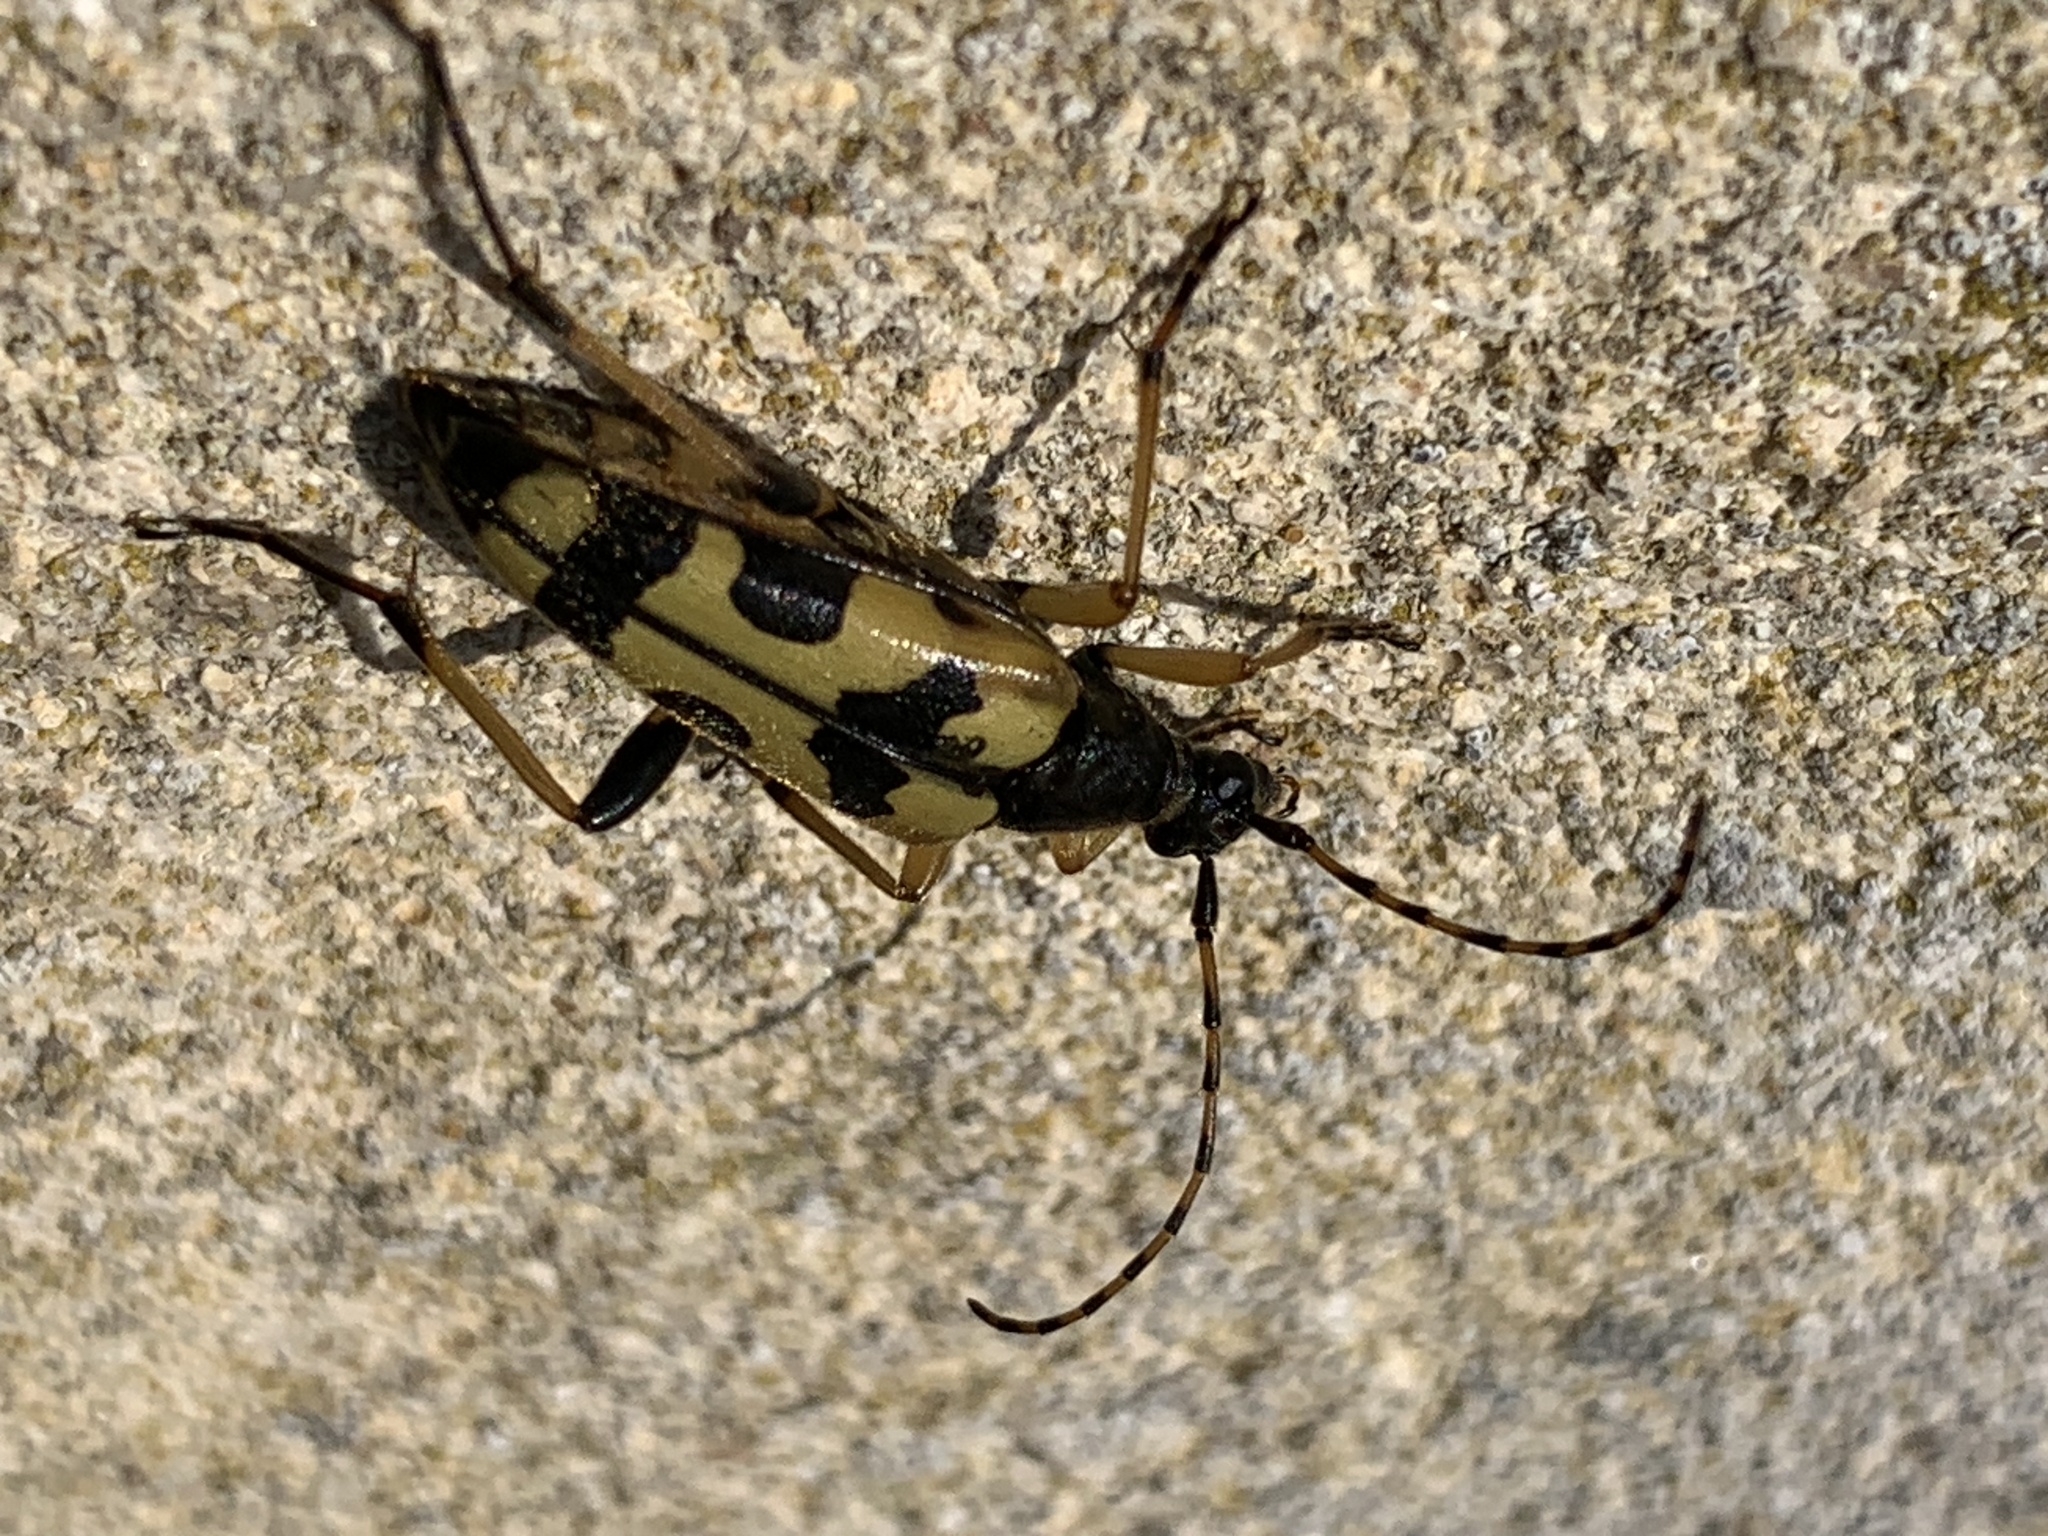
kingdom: Animalia
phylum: Arthropoda
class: Insecta
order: Coleoptera
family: Cerambycidae
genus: Rutpela
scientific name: Rutpela maculata
